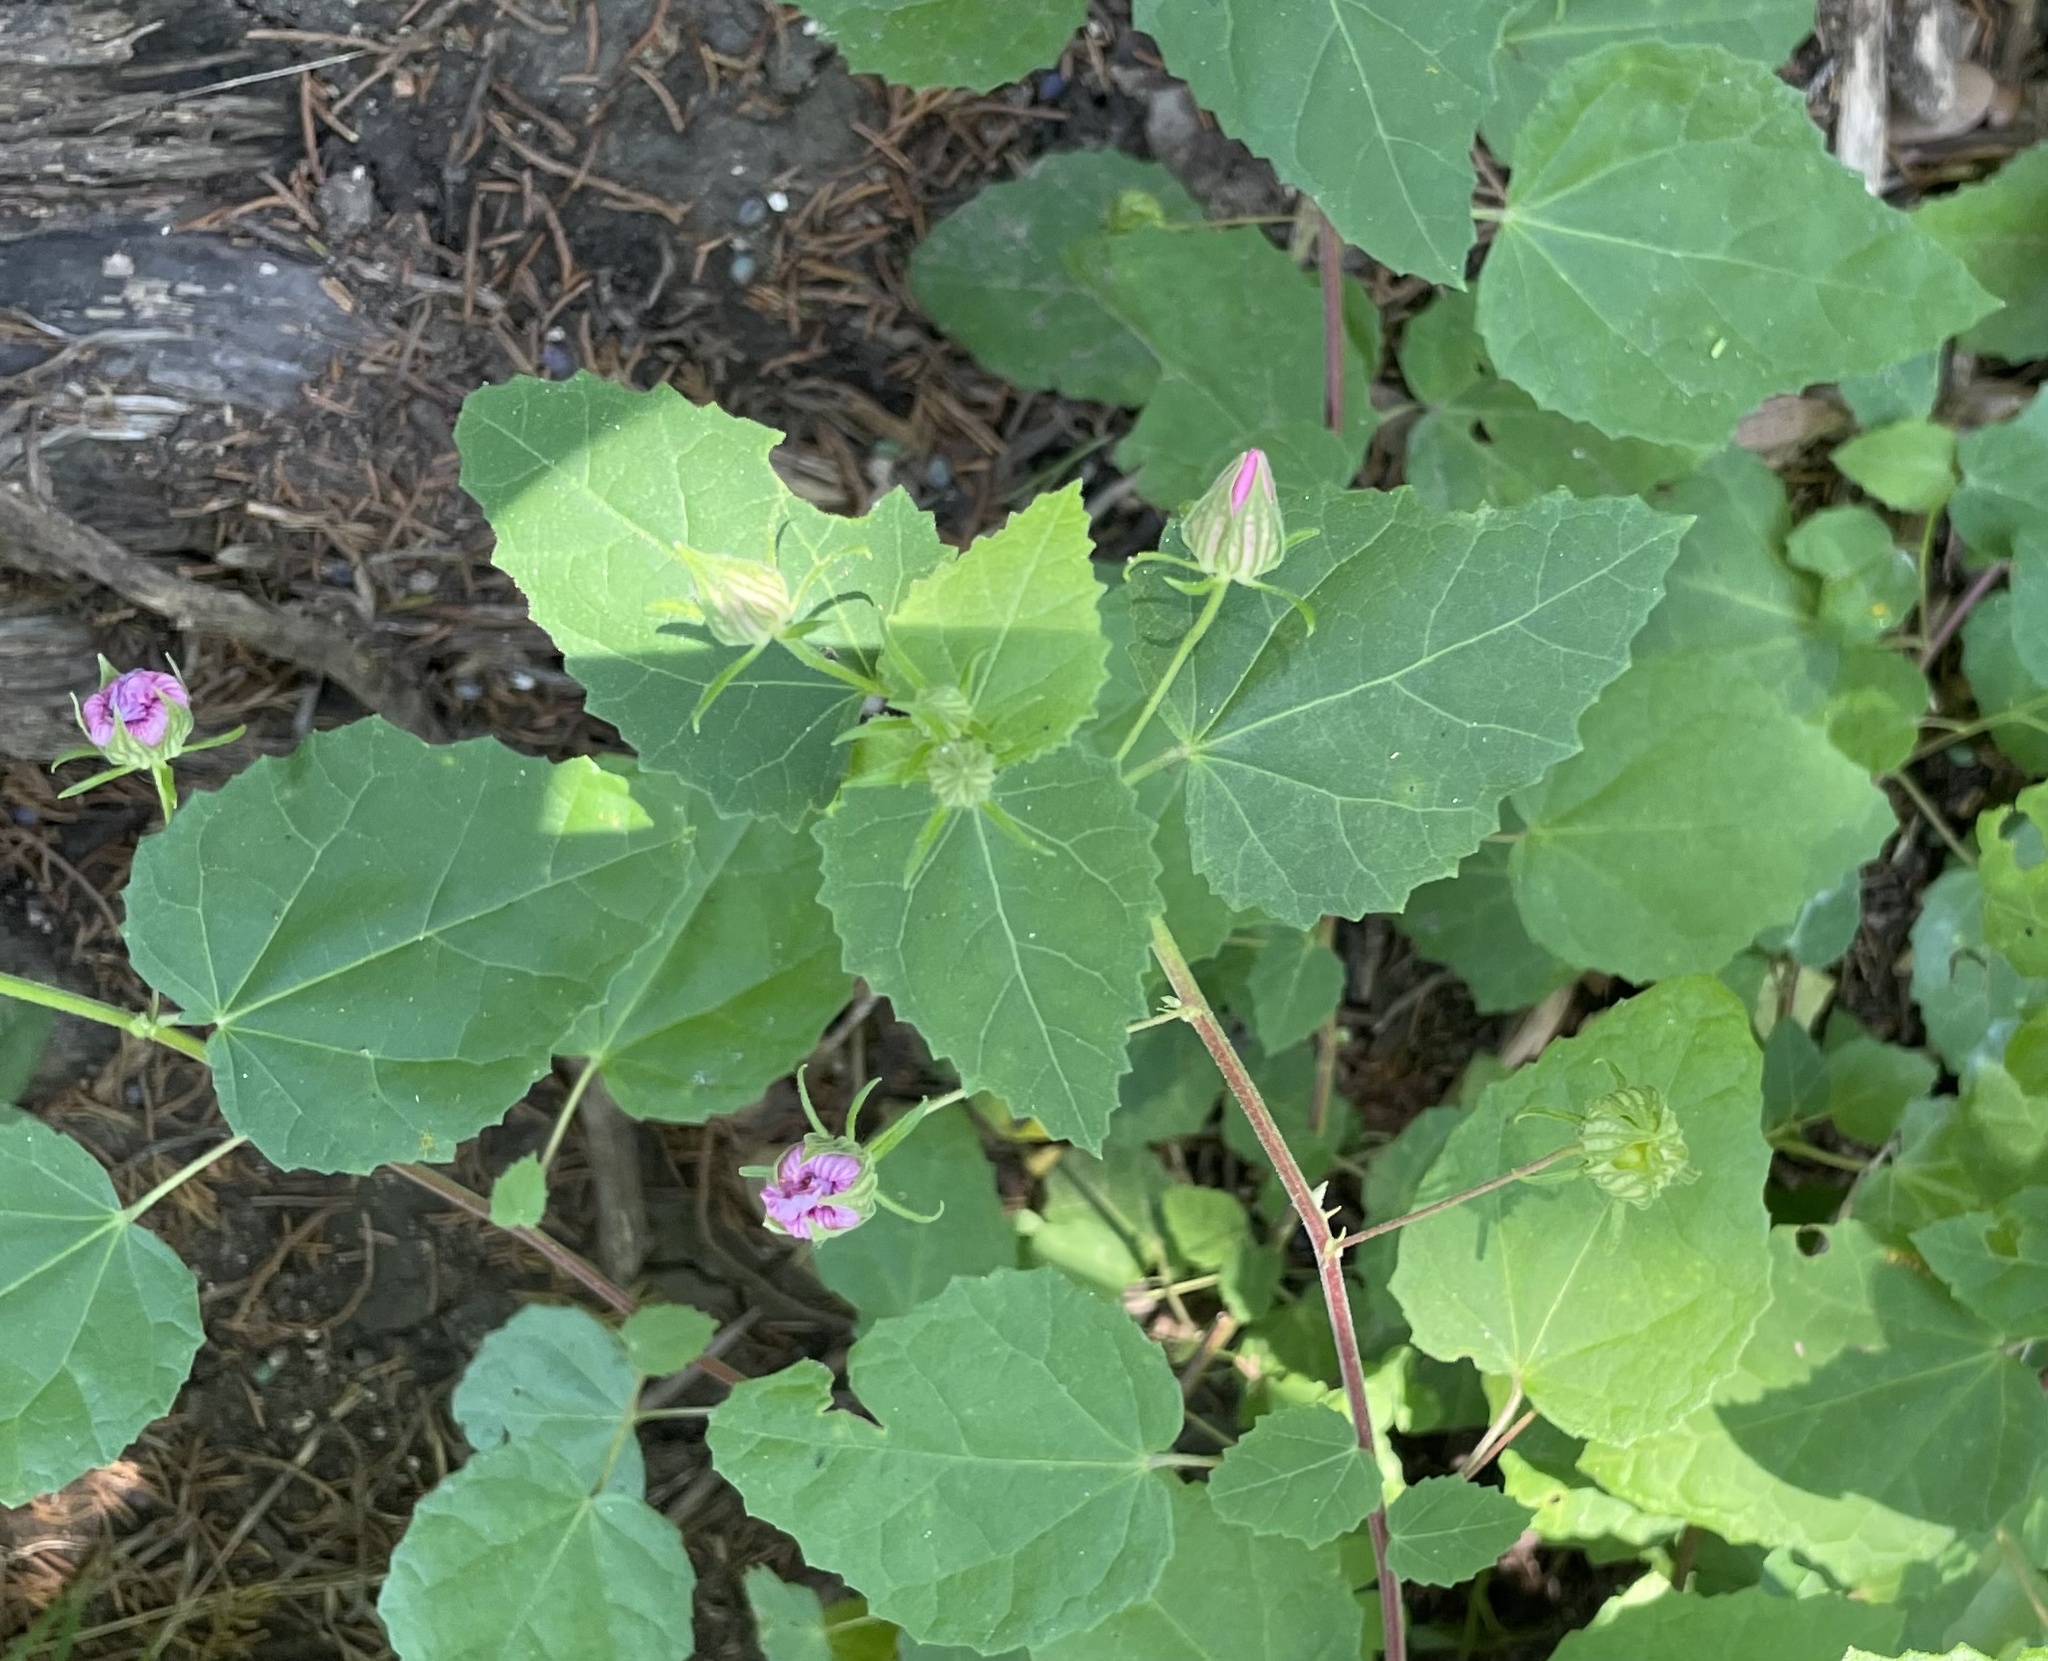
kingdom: Plantae
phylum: Tracheophyta
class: Magnoliopsida
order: Malvales
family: Malvaceae
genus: Pavonia
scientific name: Pavonia lasiopetala
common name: Texas swamp-mallow
